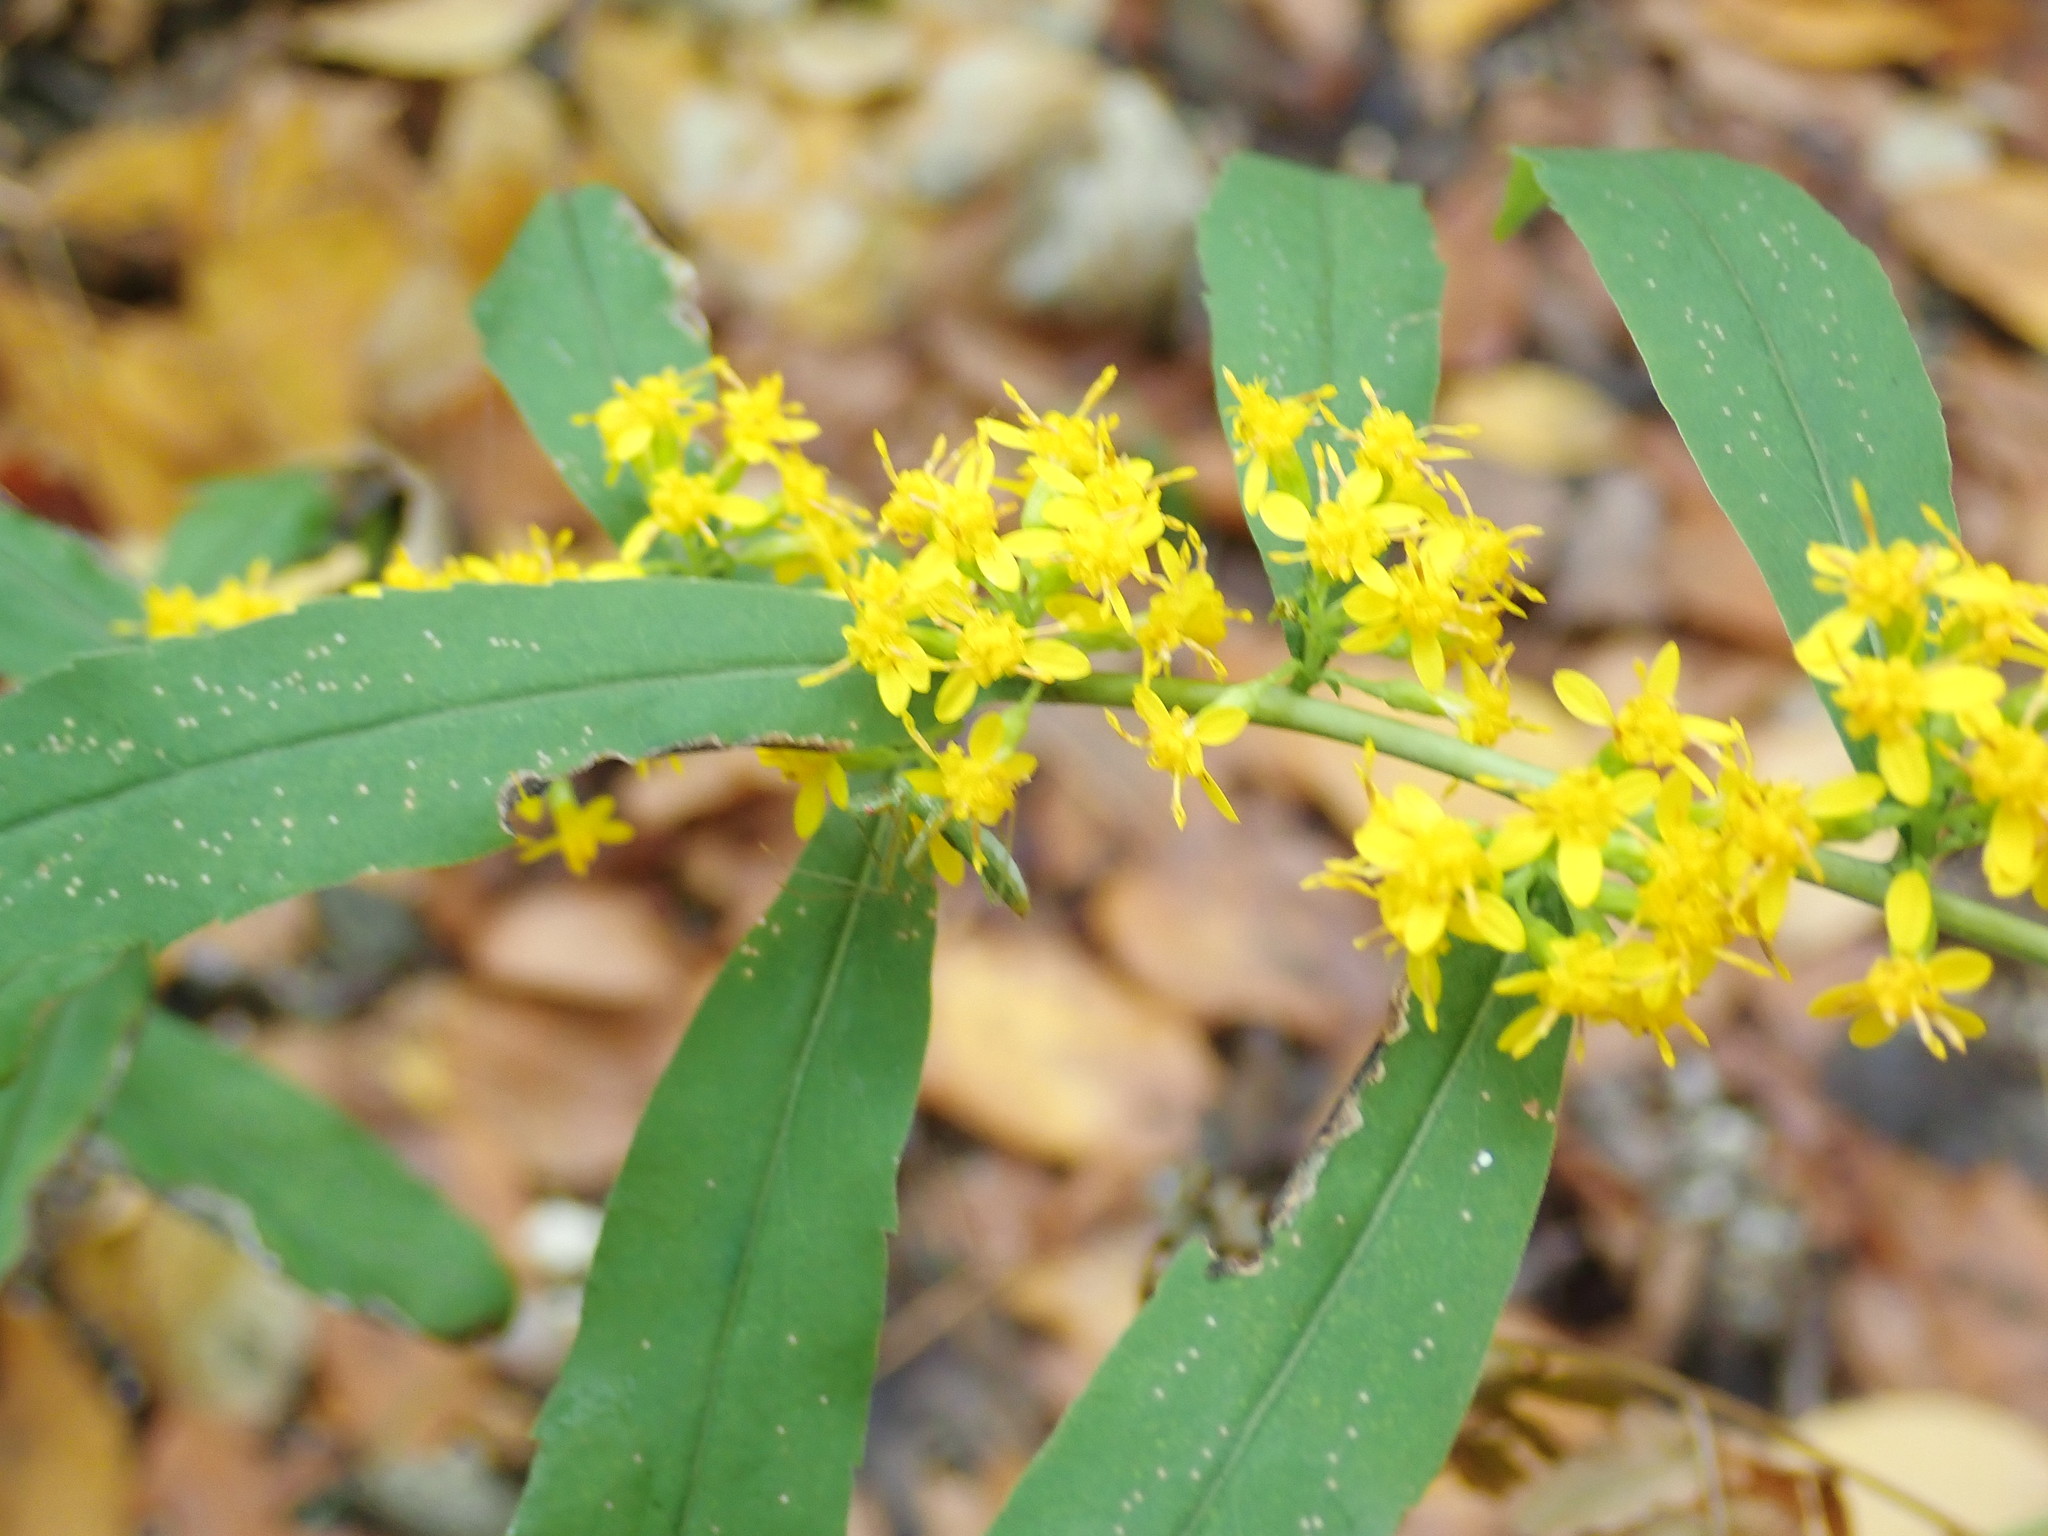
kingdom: Plantae
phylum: Tracheophyta
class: Magnoliopsida
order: Asterales
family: Asteraceae
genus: Solidago
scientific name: Solidago caesia
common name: Woodland goldenrod
